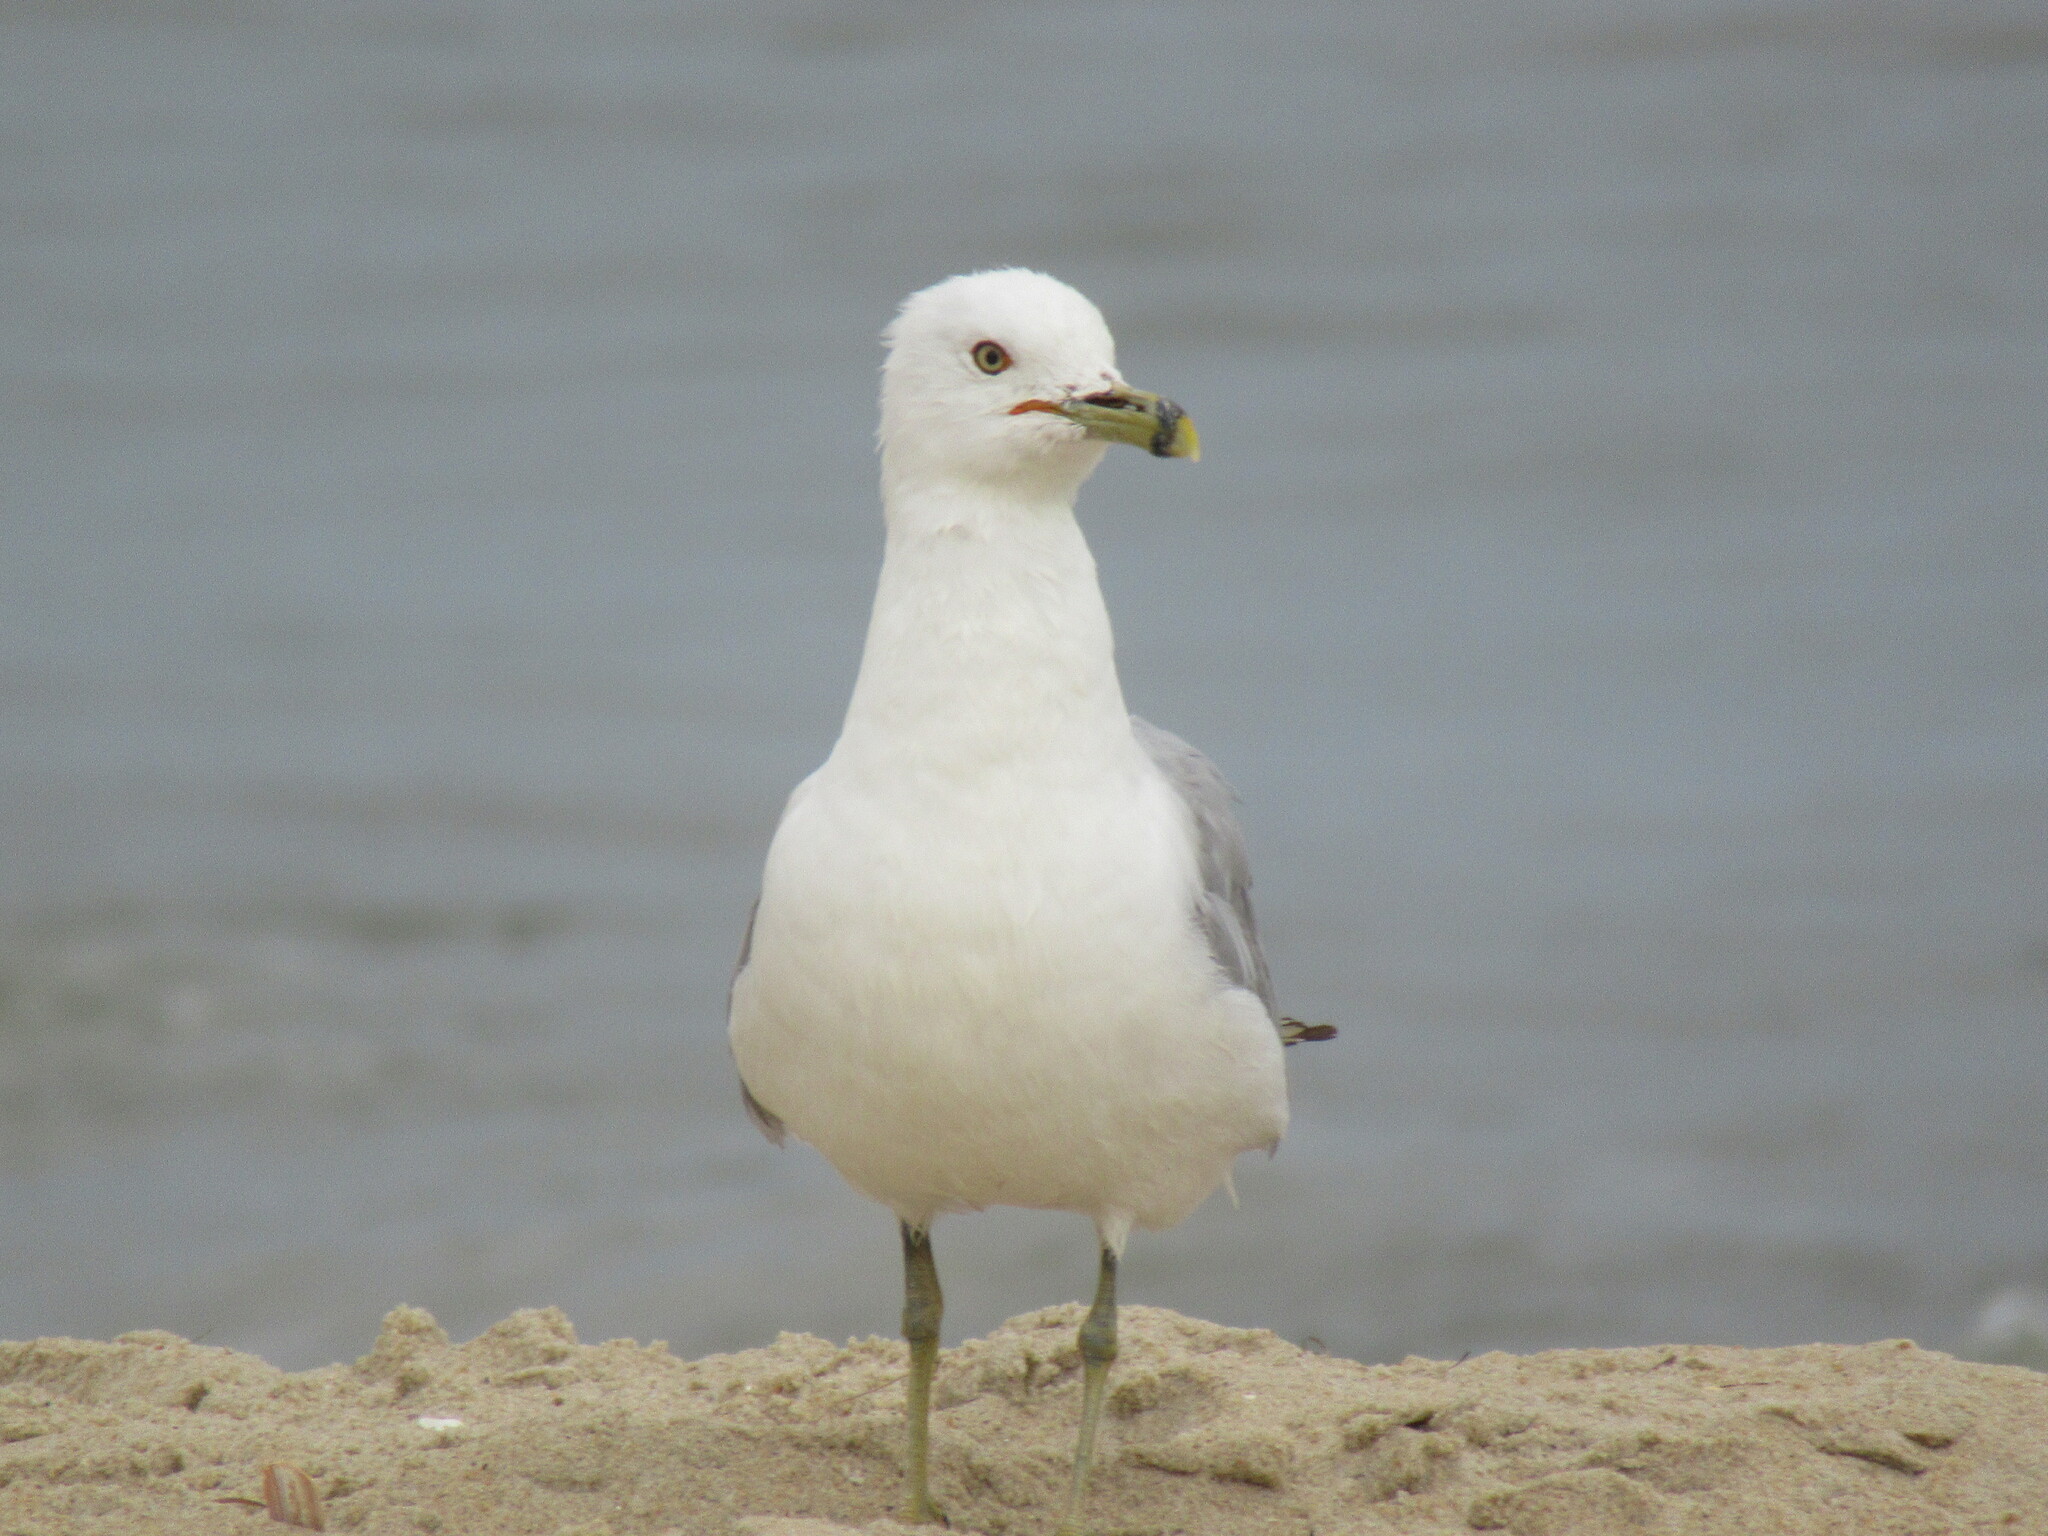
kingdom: Animalia
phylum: Chordata
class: Aves
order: Charadriiformes
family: Laridae
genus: Larus
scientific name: Larus delawarensis
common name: Ring-billed gull
